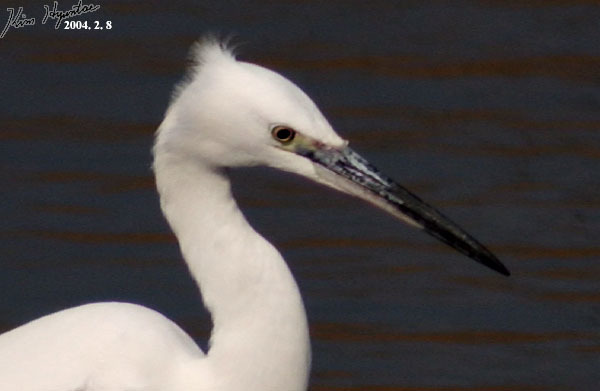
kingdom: Animalia
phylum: Chordata
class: Aves
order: Pelecaniformes
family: Ardeidae
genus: Egretta
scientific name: Egretta garzetta
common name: Little egret
